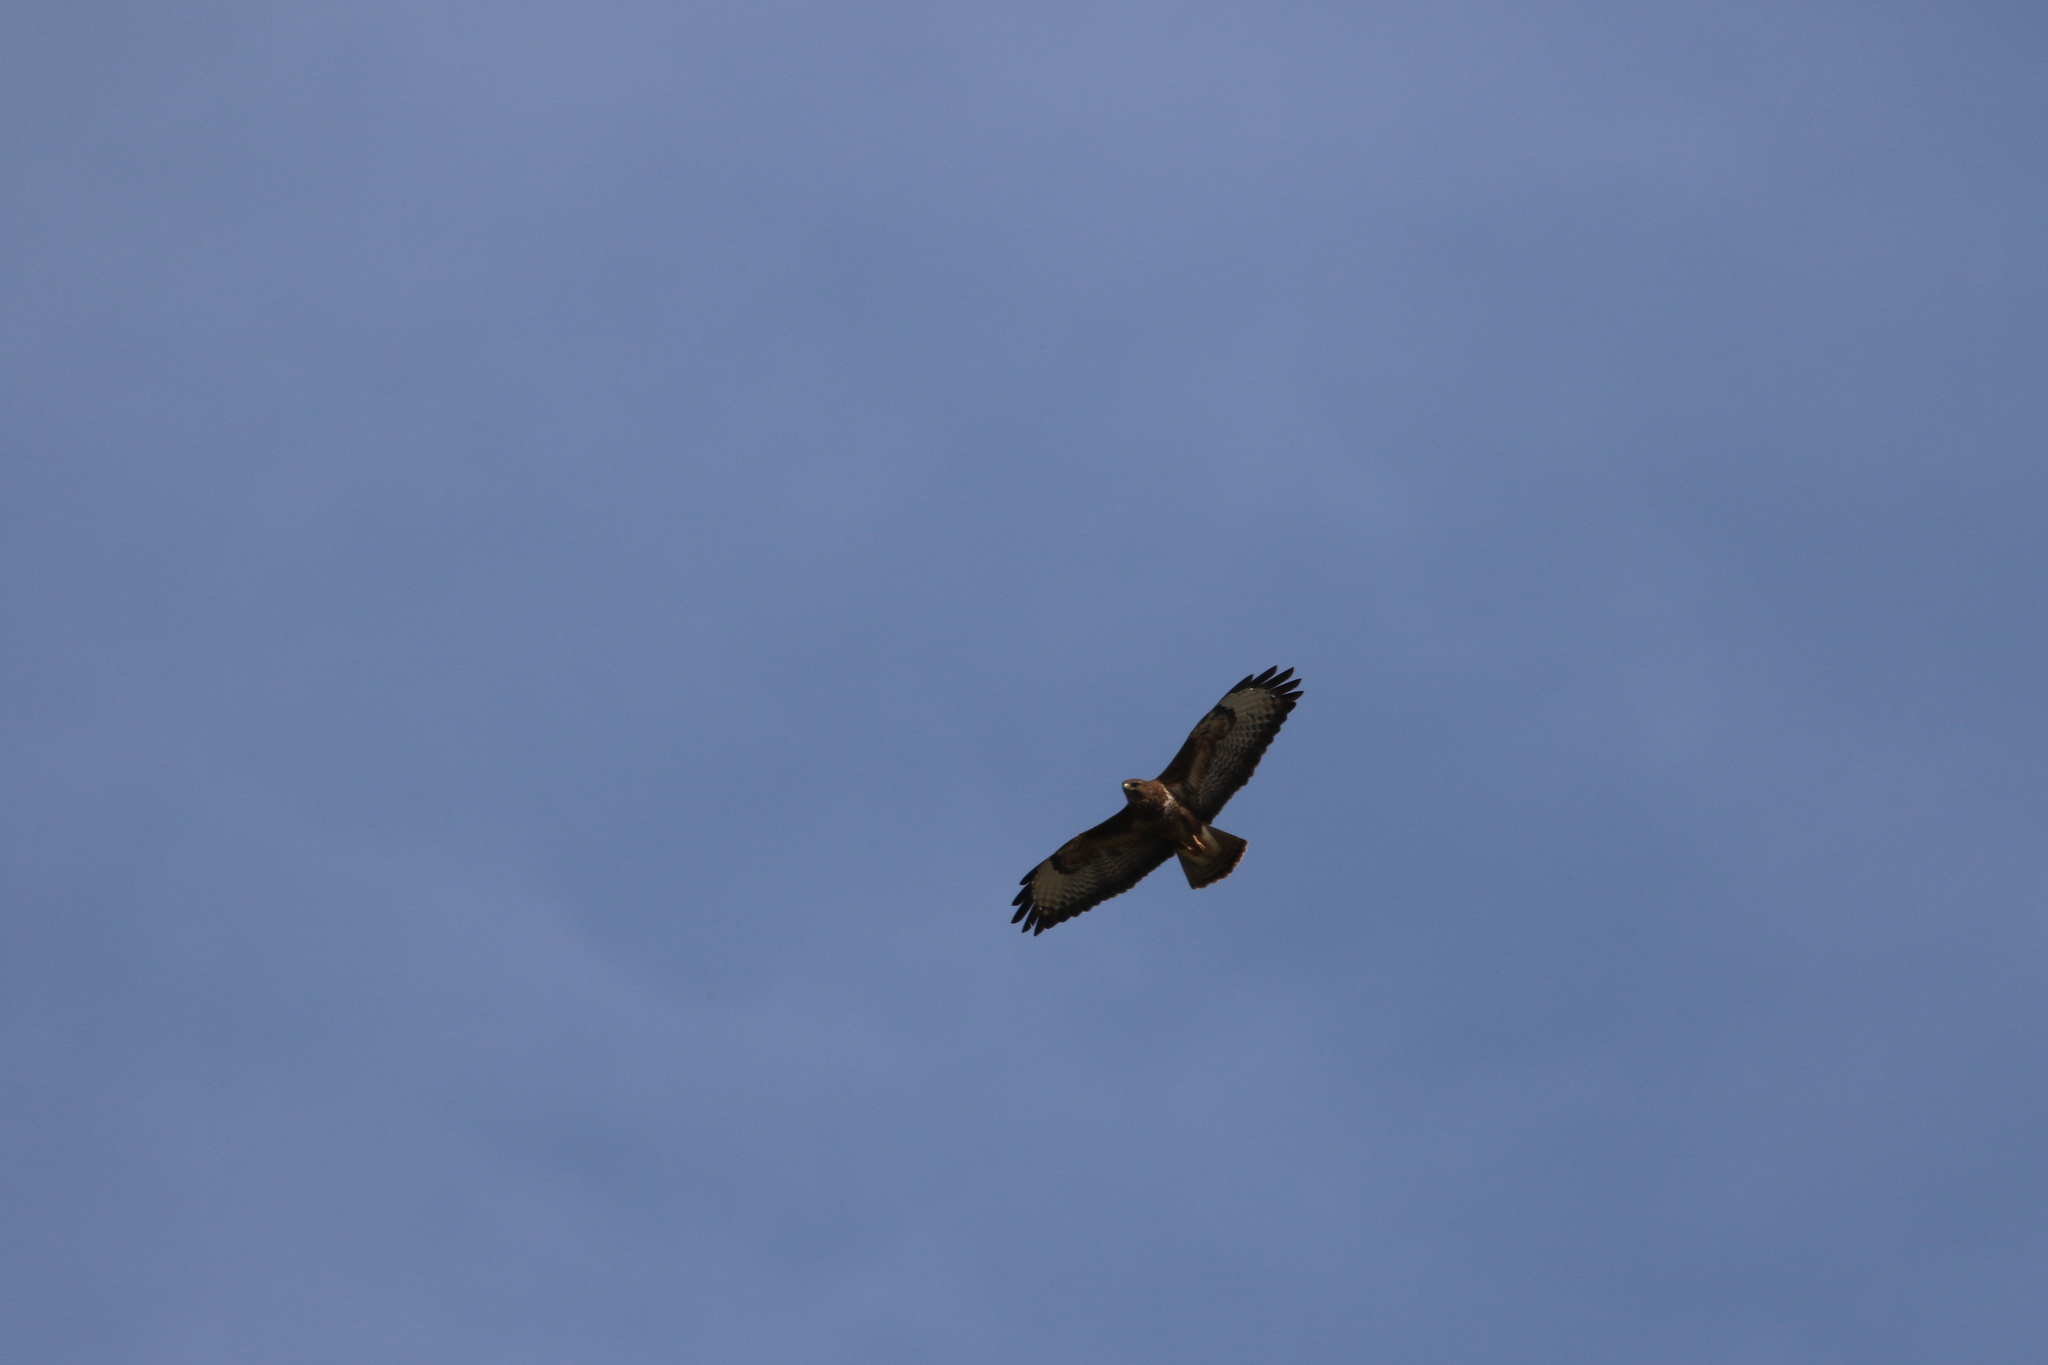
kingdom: Animalia
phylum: Chordata
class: Aves
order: Accipitriformes
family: Accipitridae
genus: Buteo
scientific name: Buteo buteo
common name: Common buzzard
